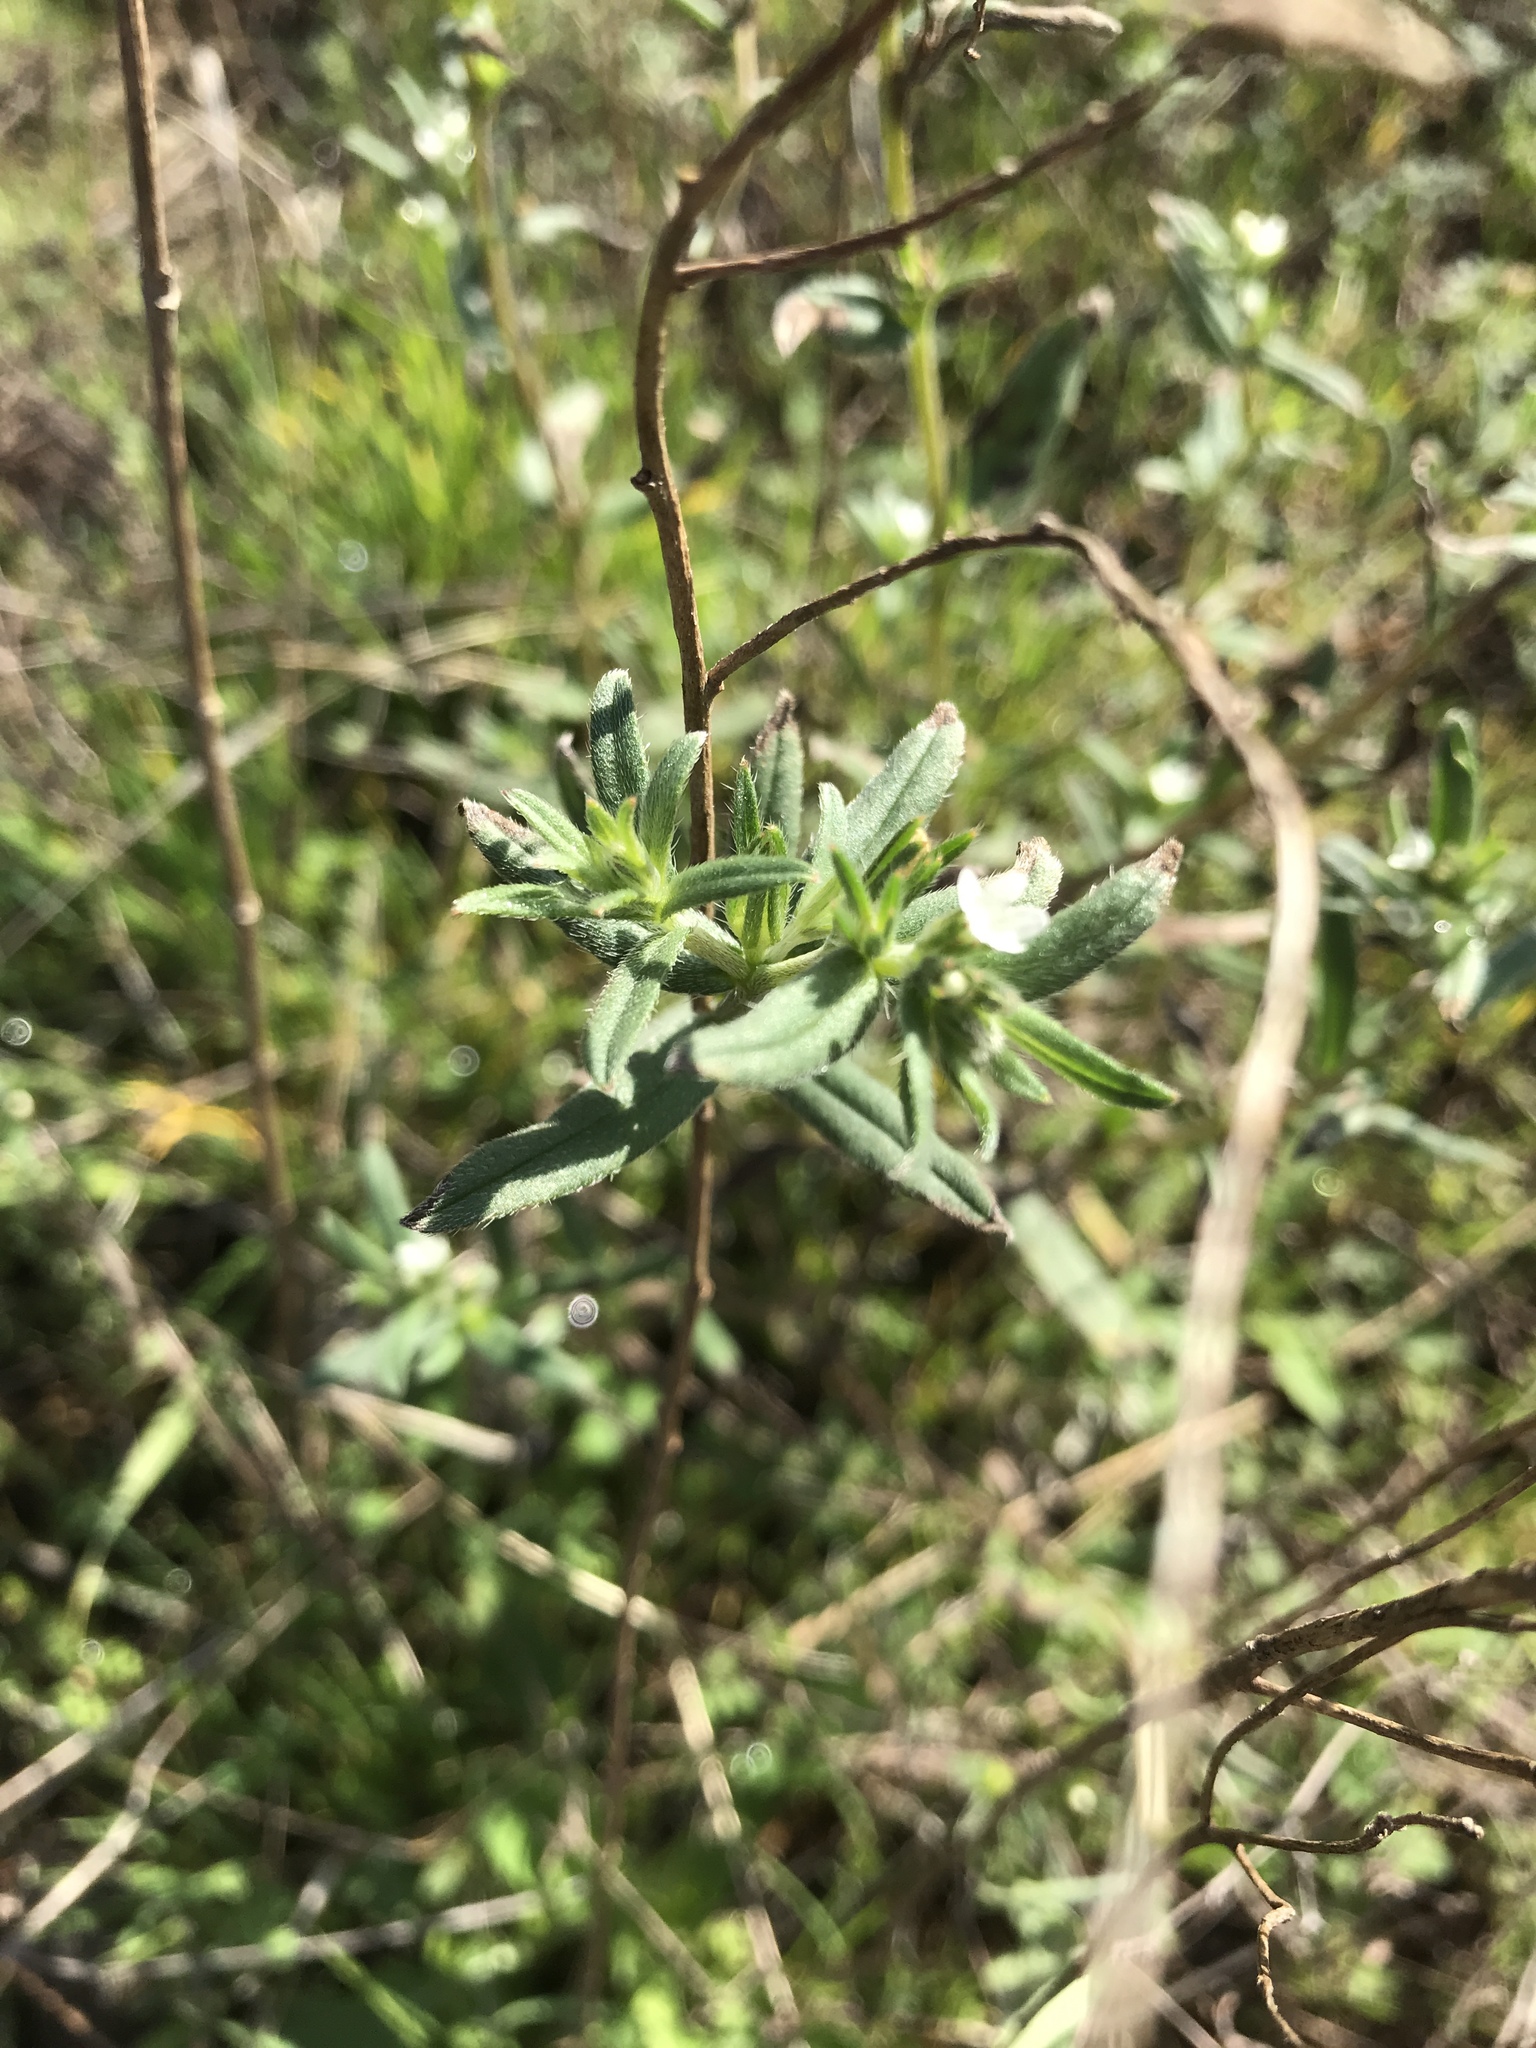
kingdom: Plantae
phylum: Tracheophyta
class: Magnoliopsida
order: Boraginales
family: Boraginaceae
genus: Buglossoides
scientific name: Buglossoides arvensis
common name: Corn gromwell
